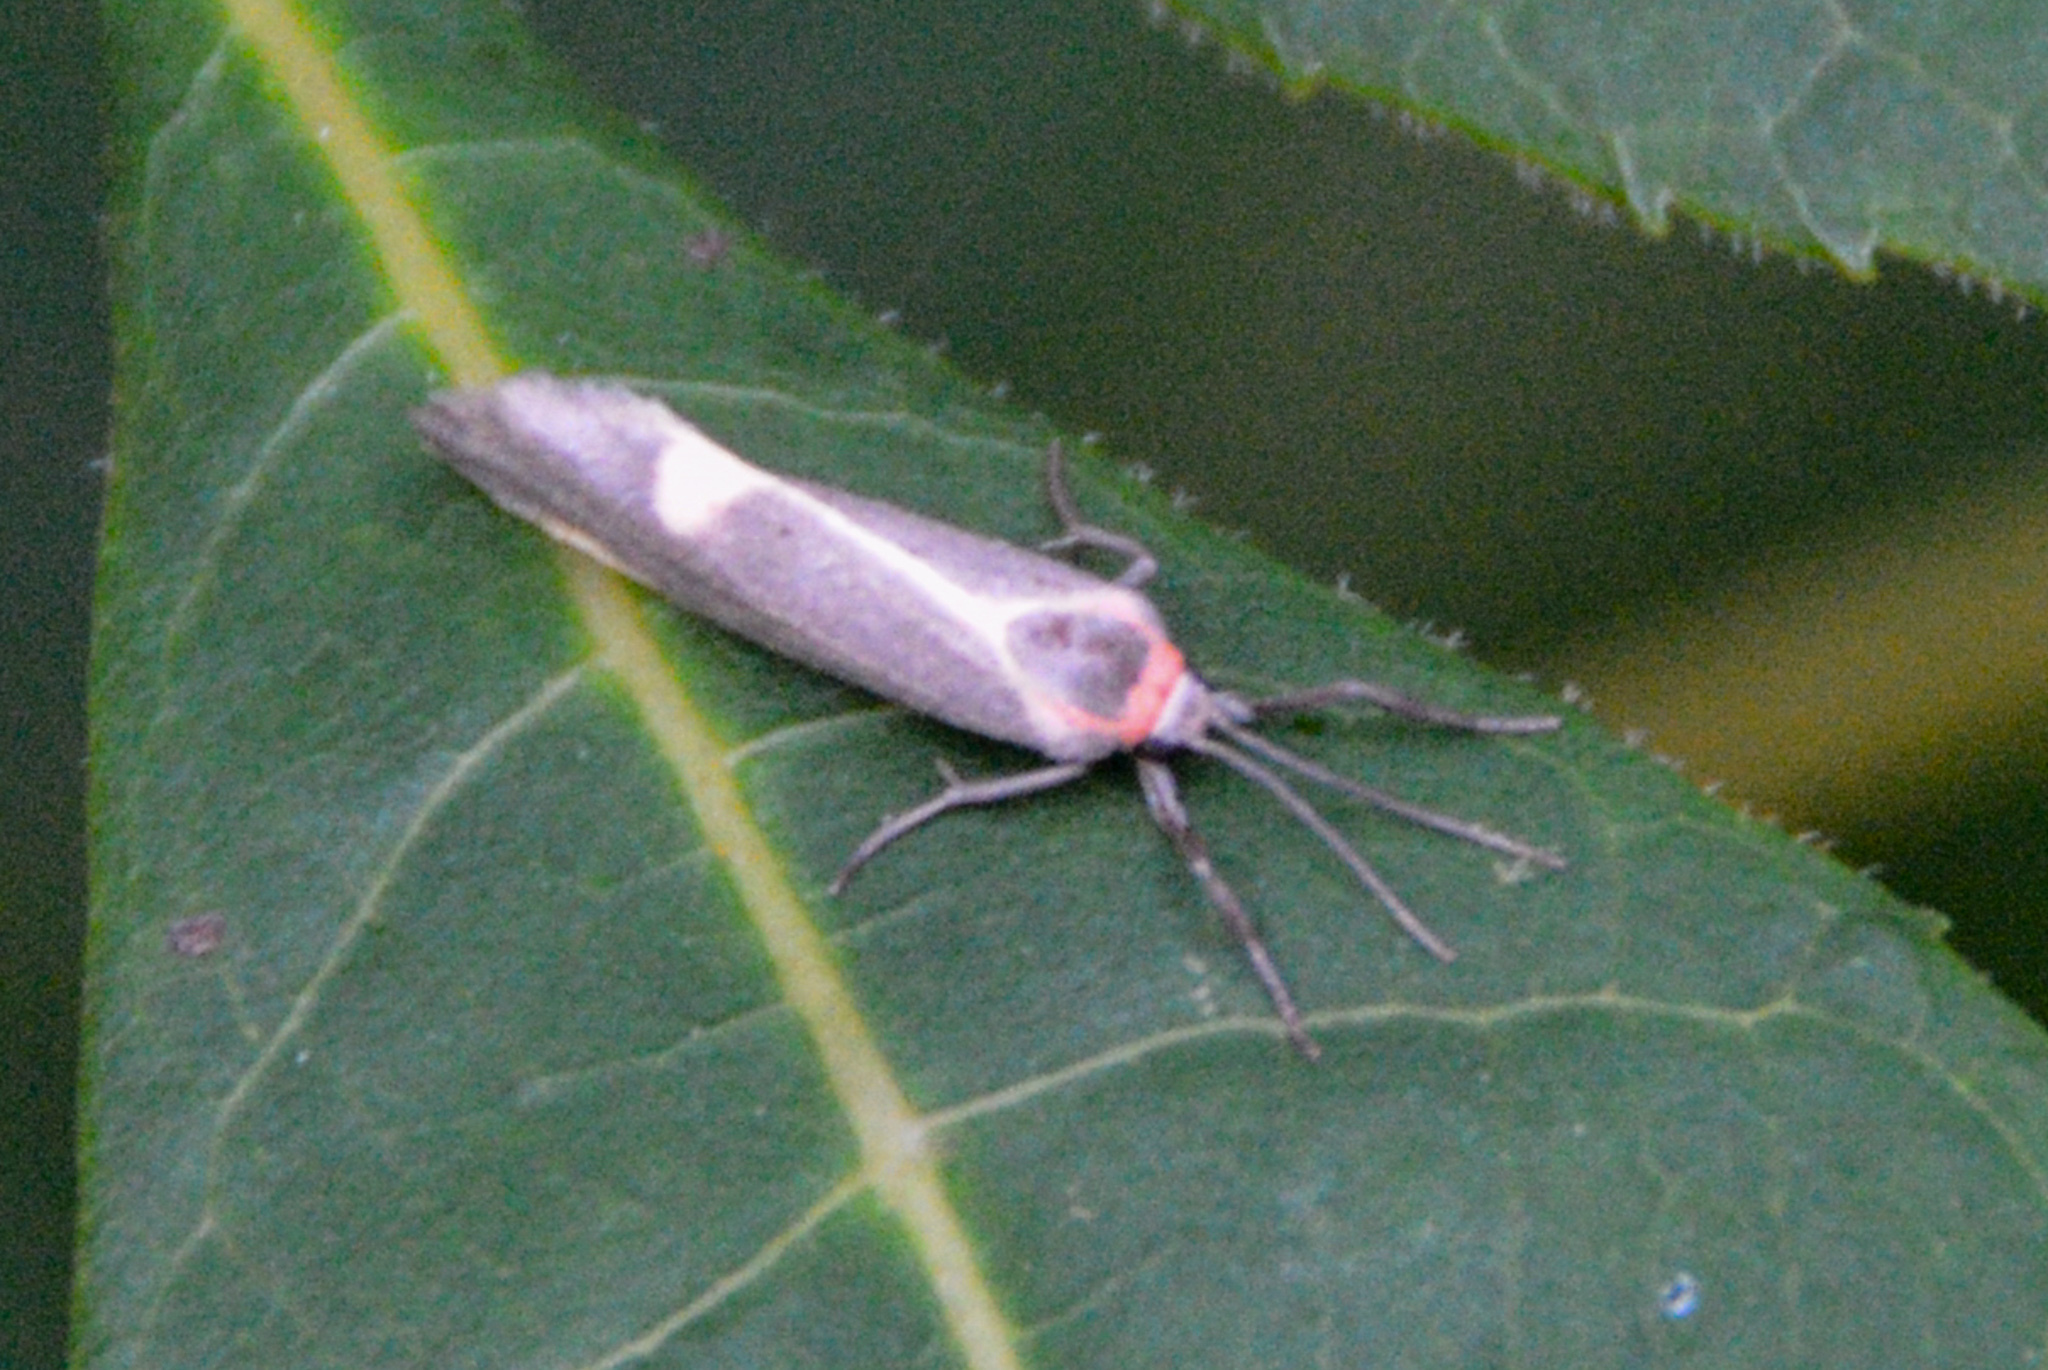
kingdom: Animalia
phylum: Arthropoda
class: Insecta
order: Lepidoptera
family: Erebidae
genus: Cisthene
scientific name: Cisthene plumbea
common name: Lead colored lichen moth
